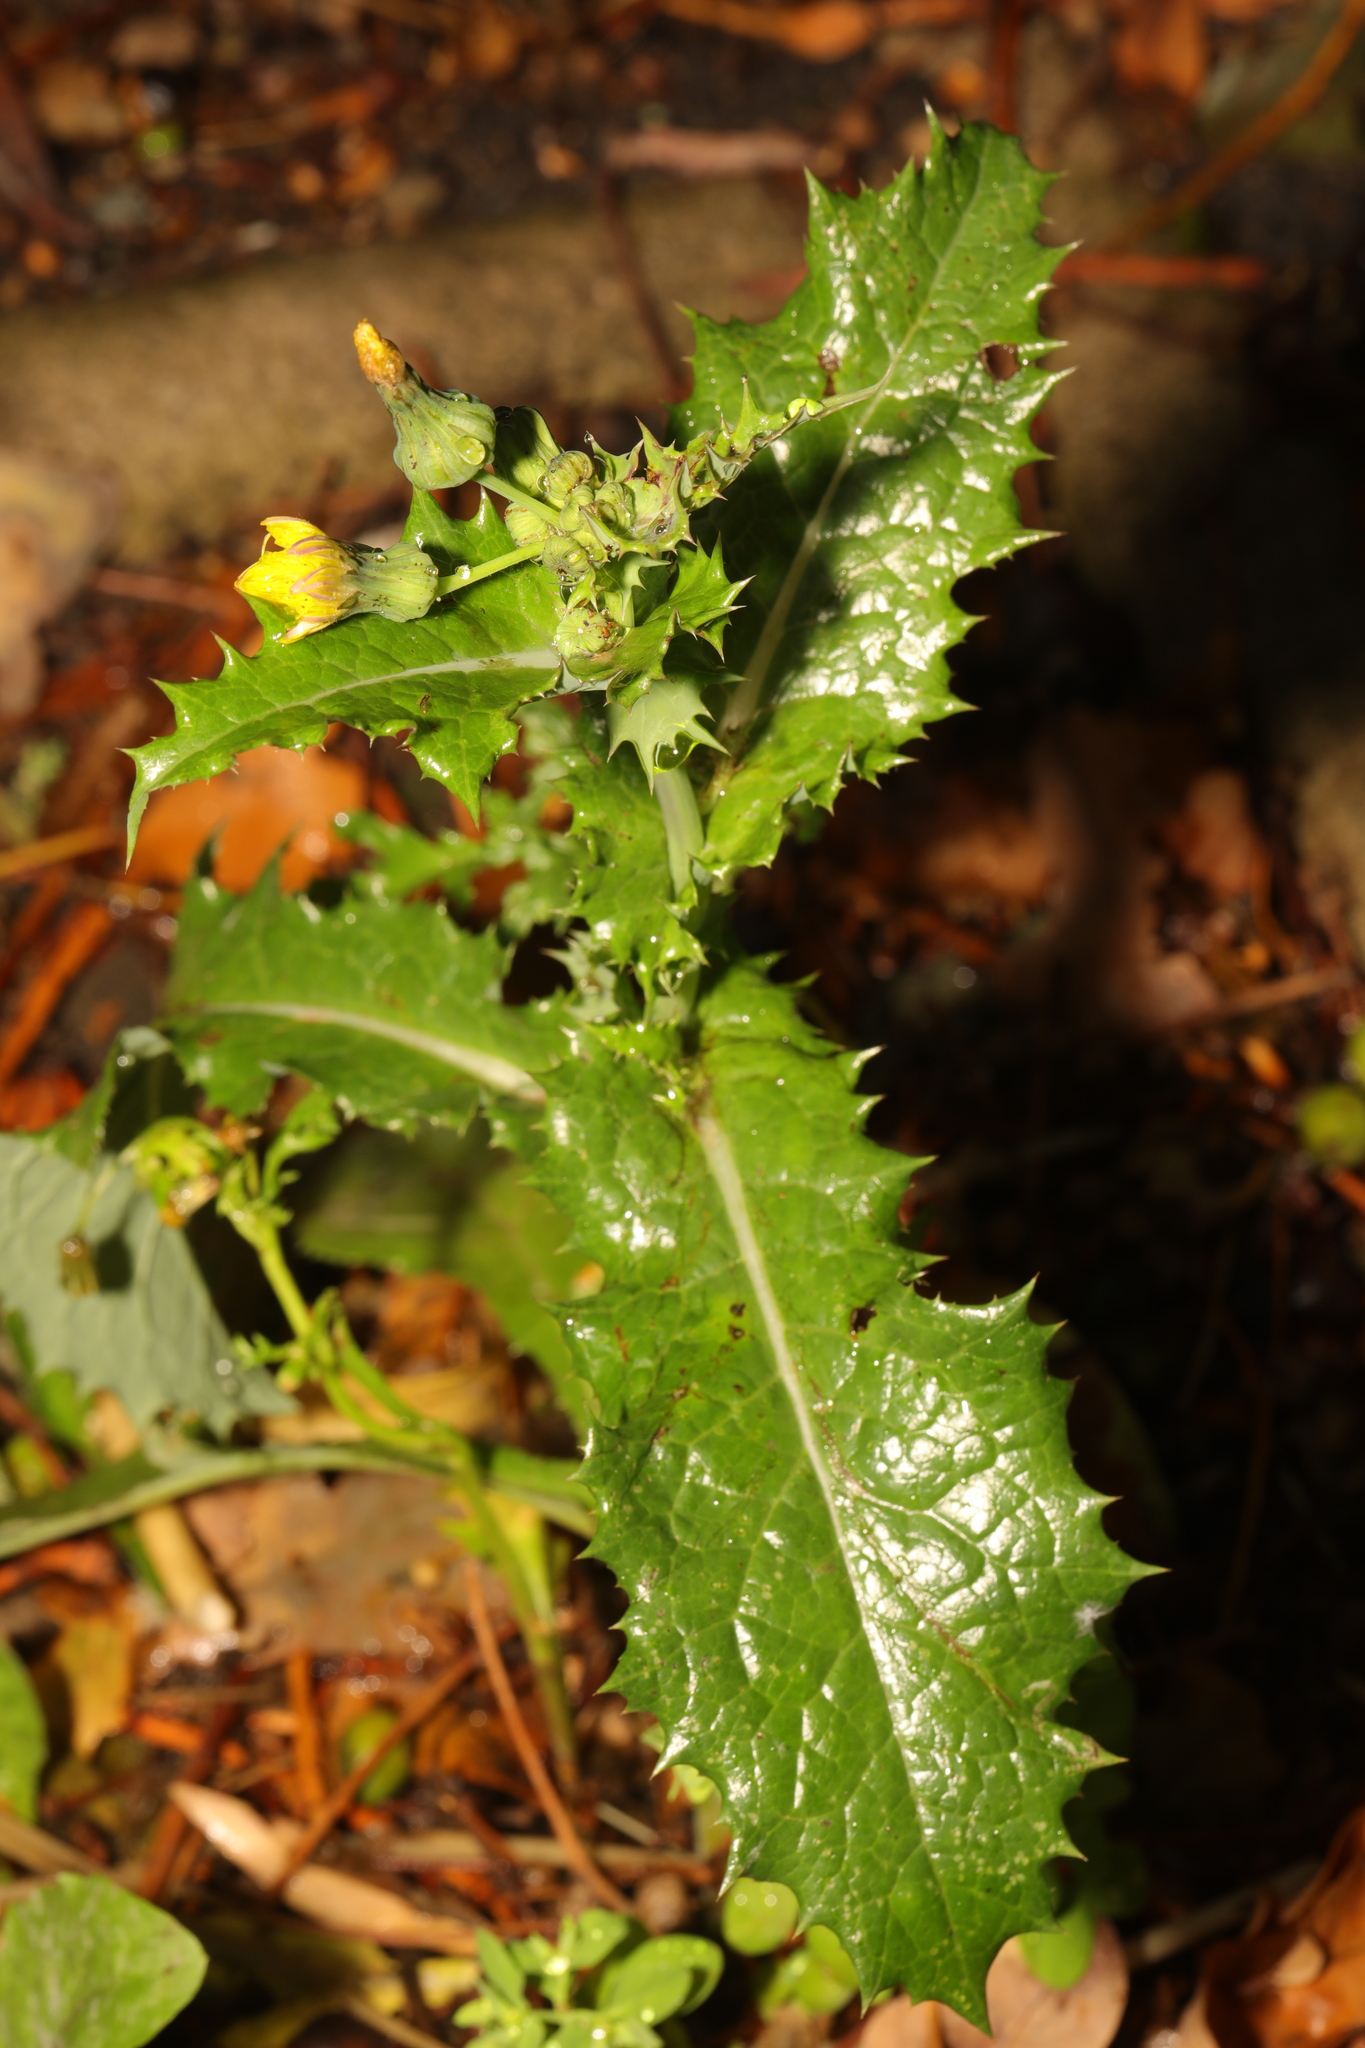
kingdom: Plantae
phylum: Tracheophyta
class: Magnoliopsida
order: Asterales
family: Asteraceae
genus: Sonchus
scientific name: Sonchus asper
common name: Prickly sow-thistle
